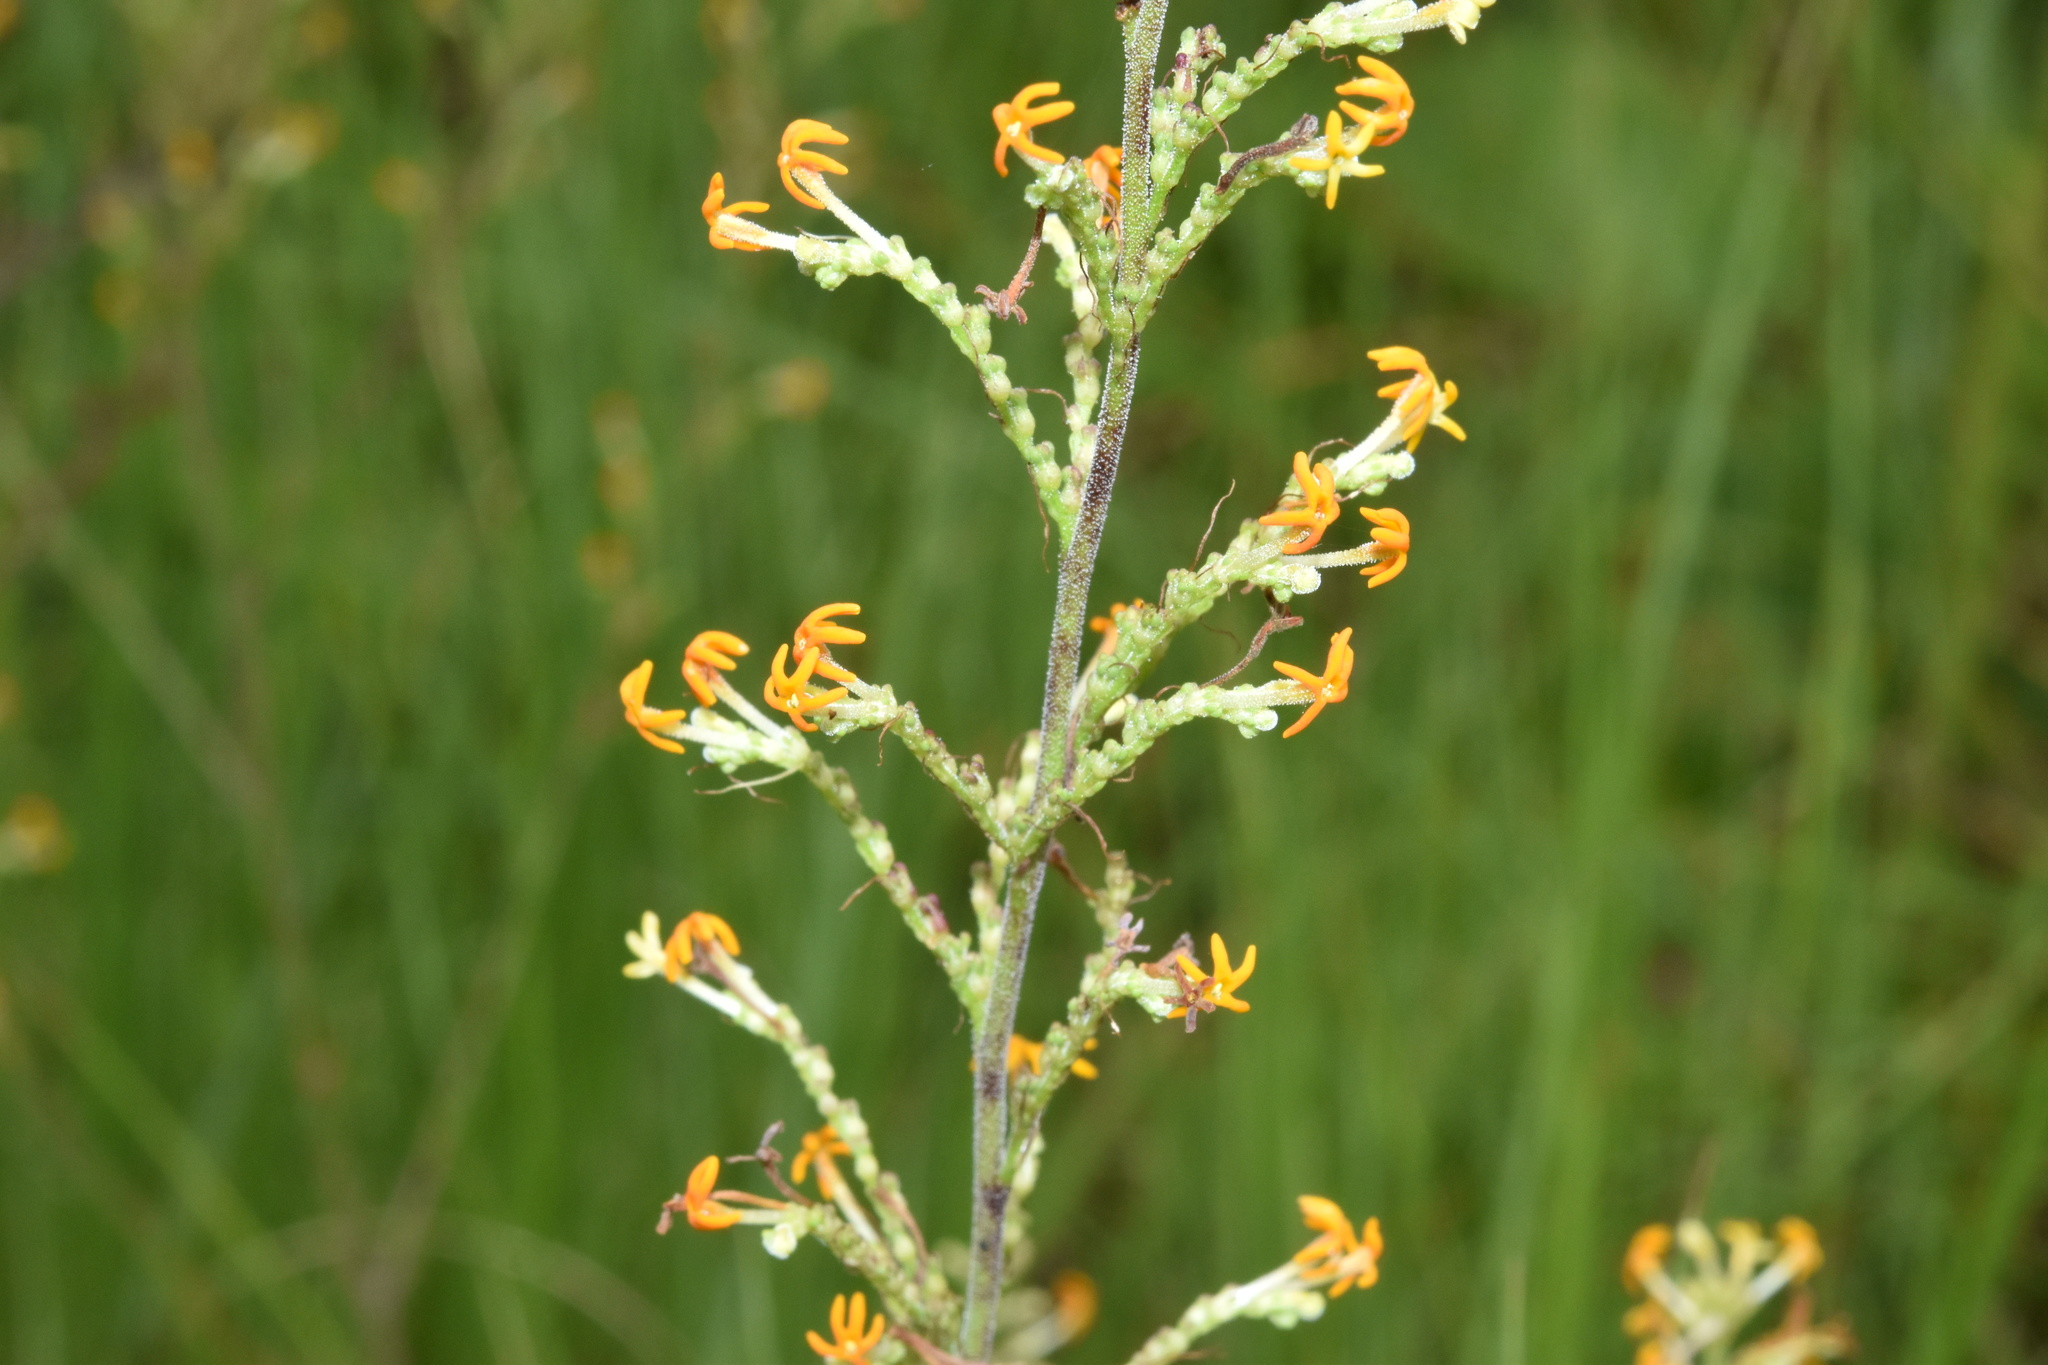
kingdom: Plantae
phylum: Tracheophyta
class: Magnoliopsida
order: Lamiales
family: Scrophulariaceae
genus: Manulea
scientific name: Manulea parviflora
